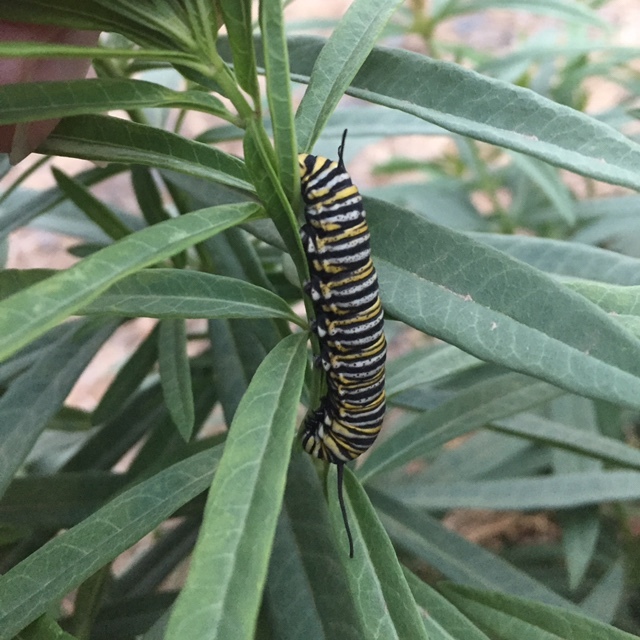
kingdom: Animalia
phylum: Arthropoda
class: Insecta
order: Lepidoptera
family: Nymphalidae
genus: Danaus
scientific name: Danaus plexippus
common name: Monarch
